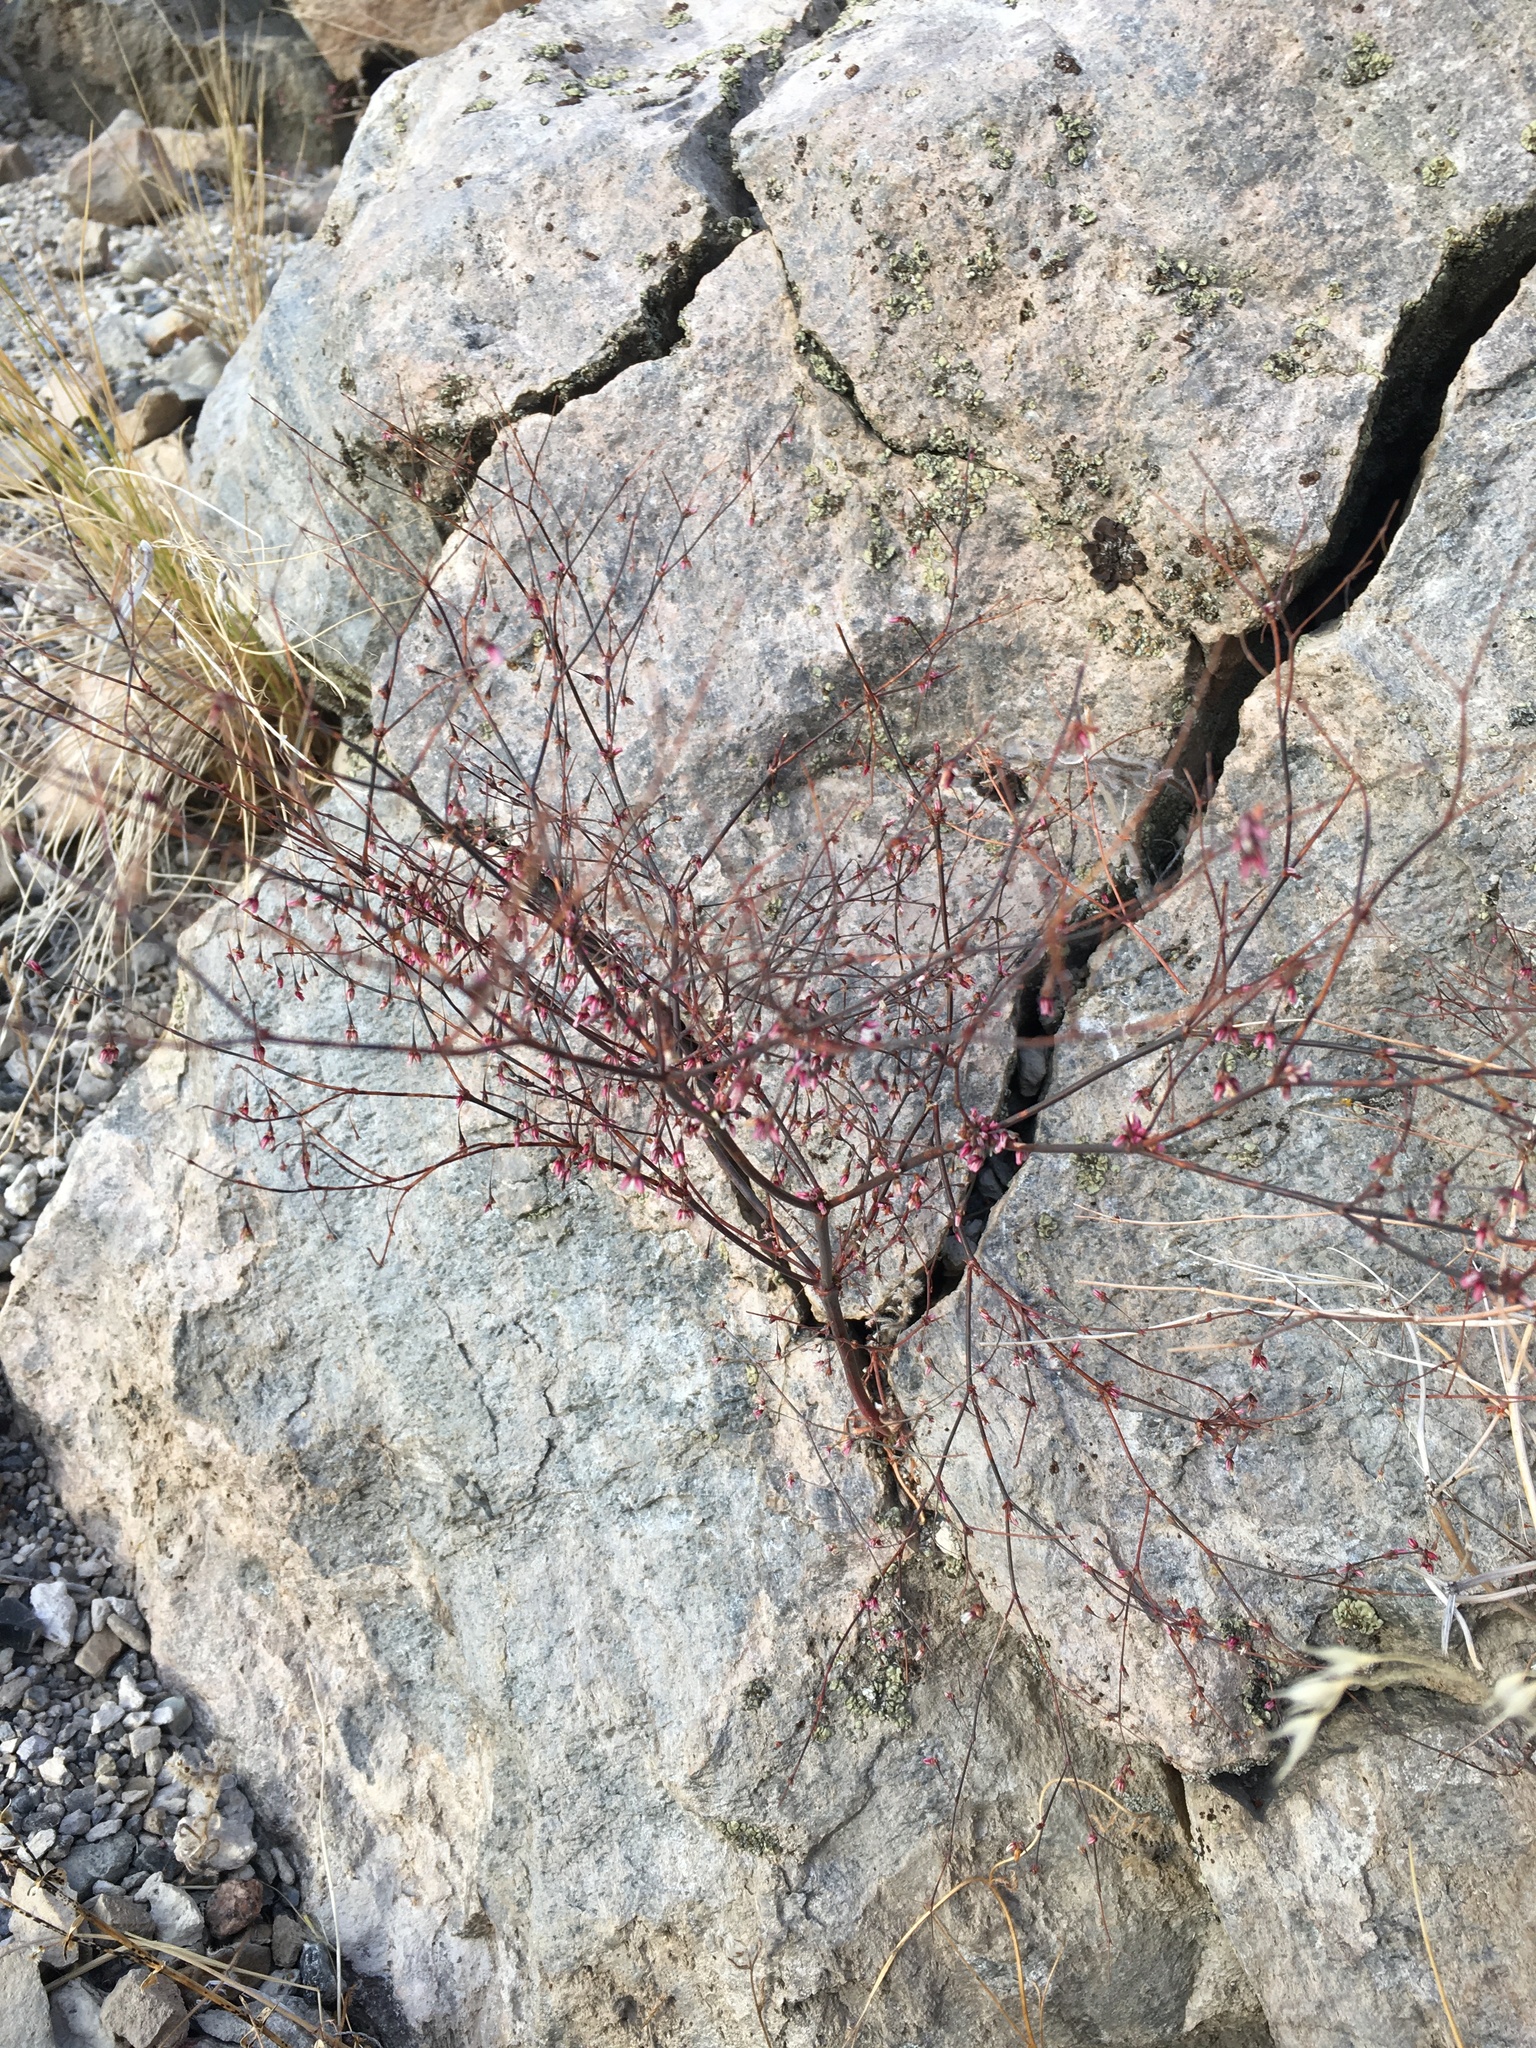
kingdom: Plantae
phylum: Tracheophyta
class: Magnoliopsida
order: Caryophyllales
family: Polygonaceae
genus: Eriogonum
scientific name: Eriogonum esmeraldense
